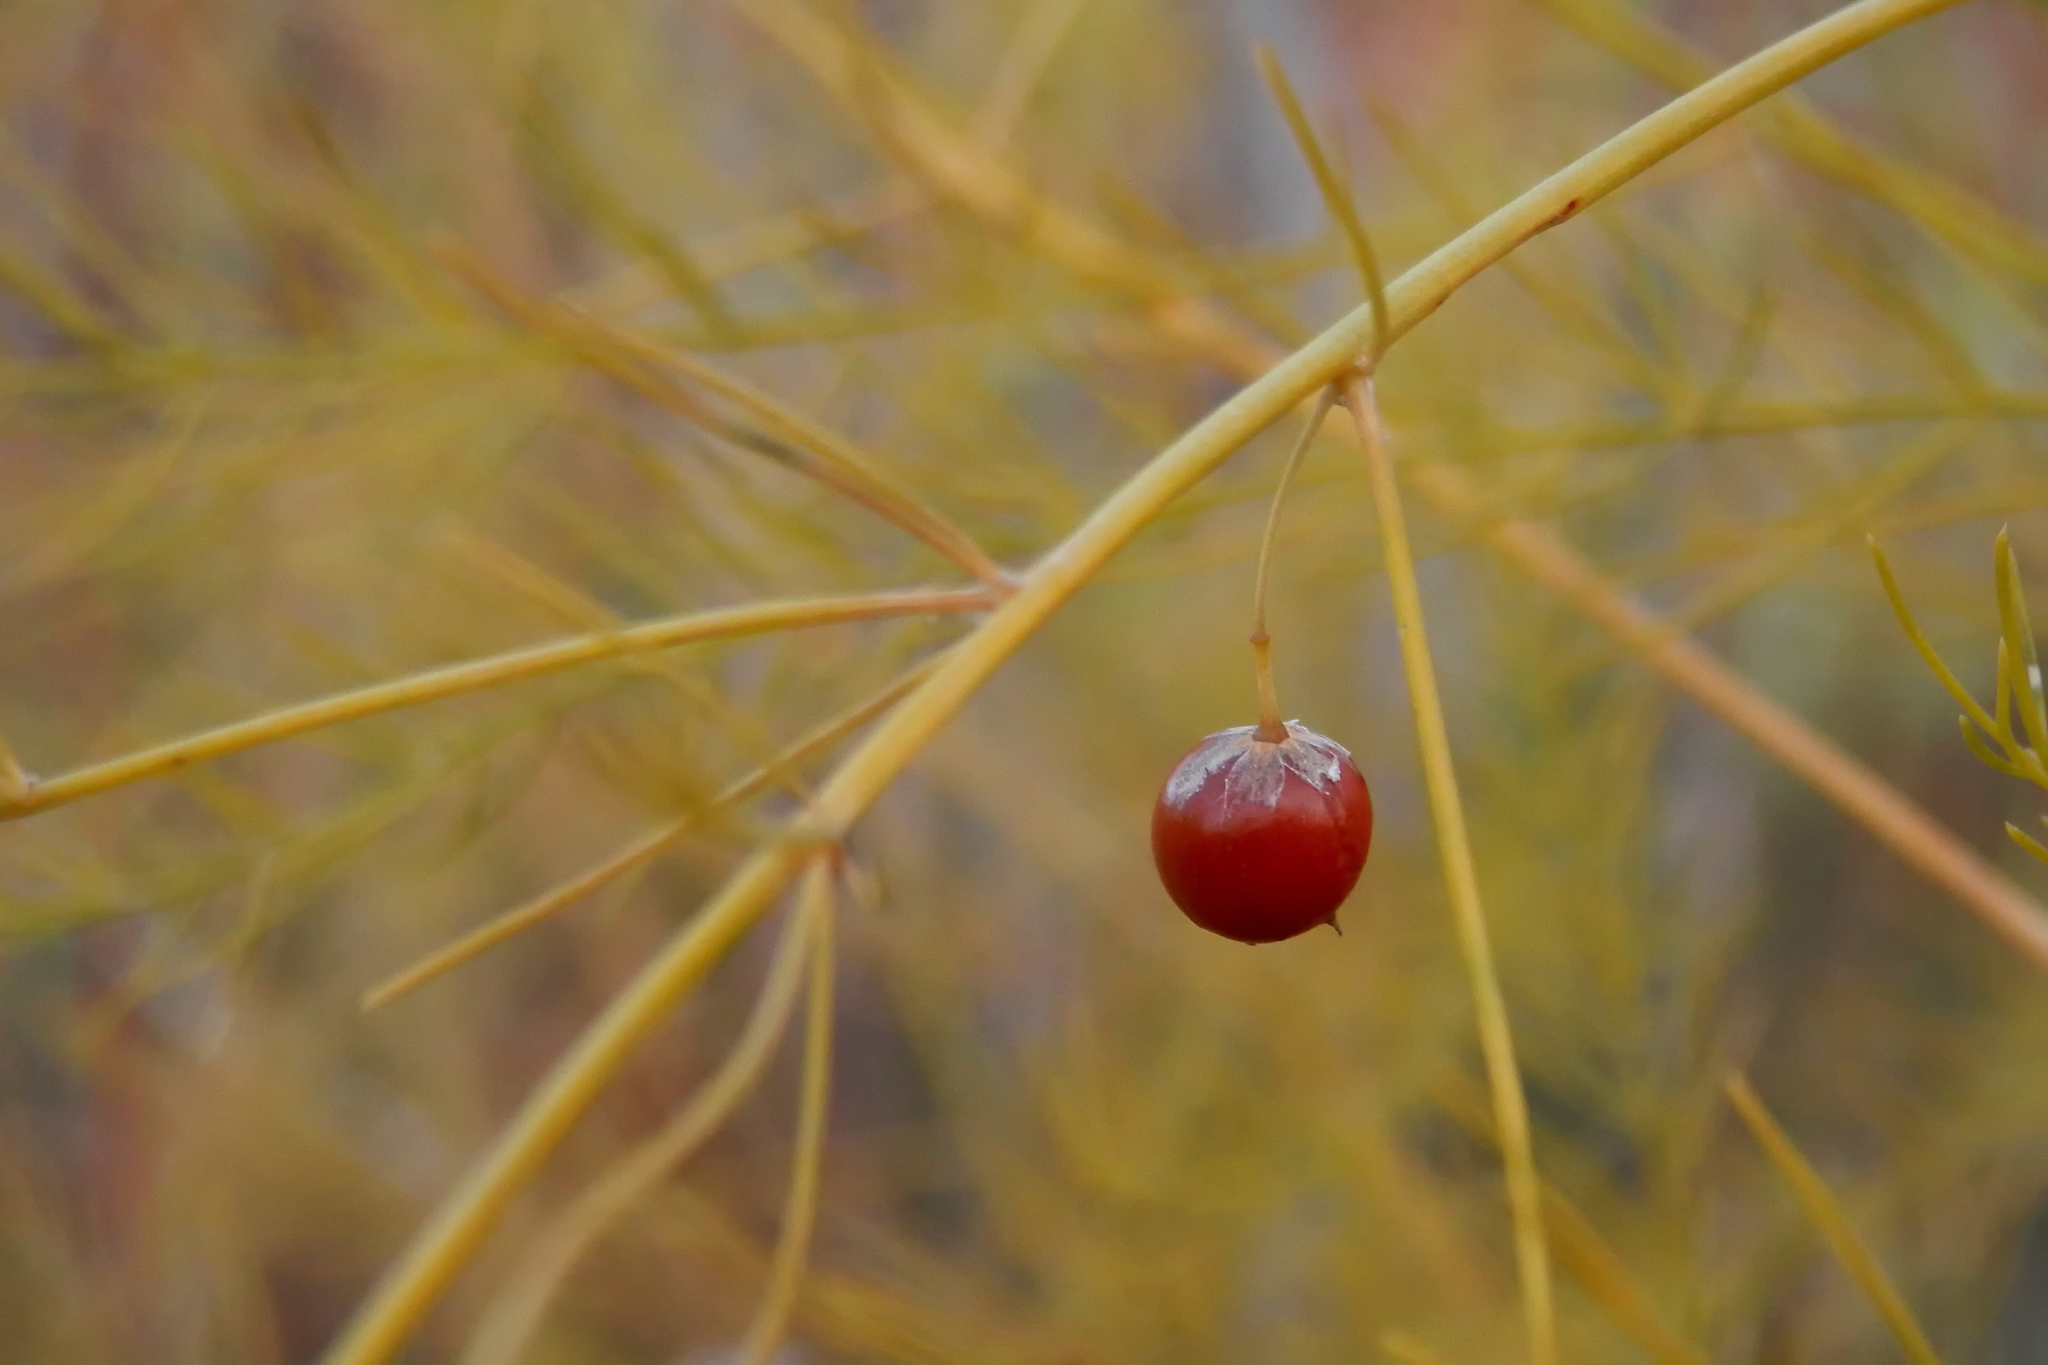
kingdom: Plantae
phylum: Tracheophyta
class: Liliopsida
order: Asparagales
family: Asparagaceae
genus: Asparagus
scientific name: Asparagus officinalis
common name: Garden asparagus
